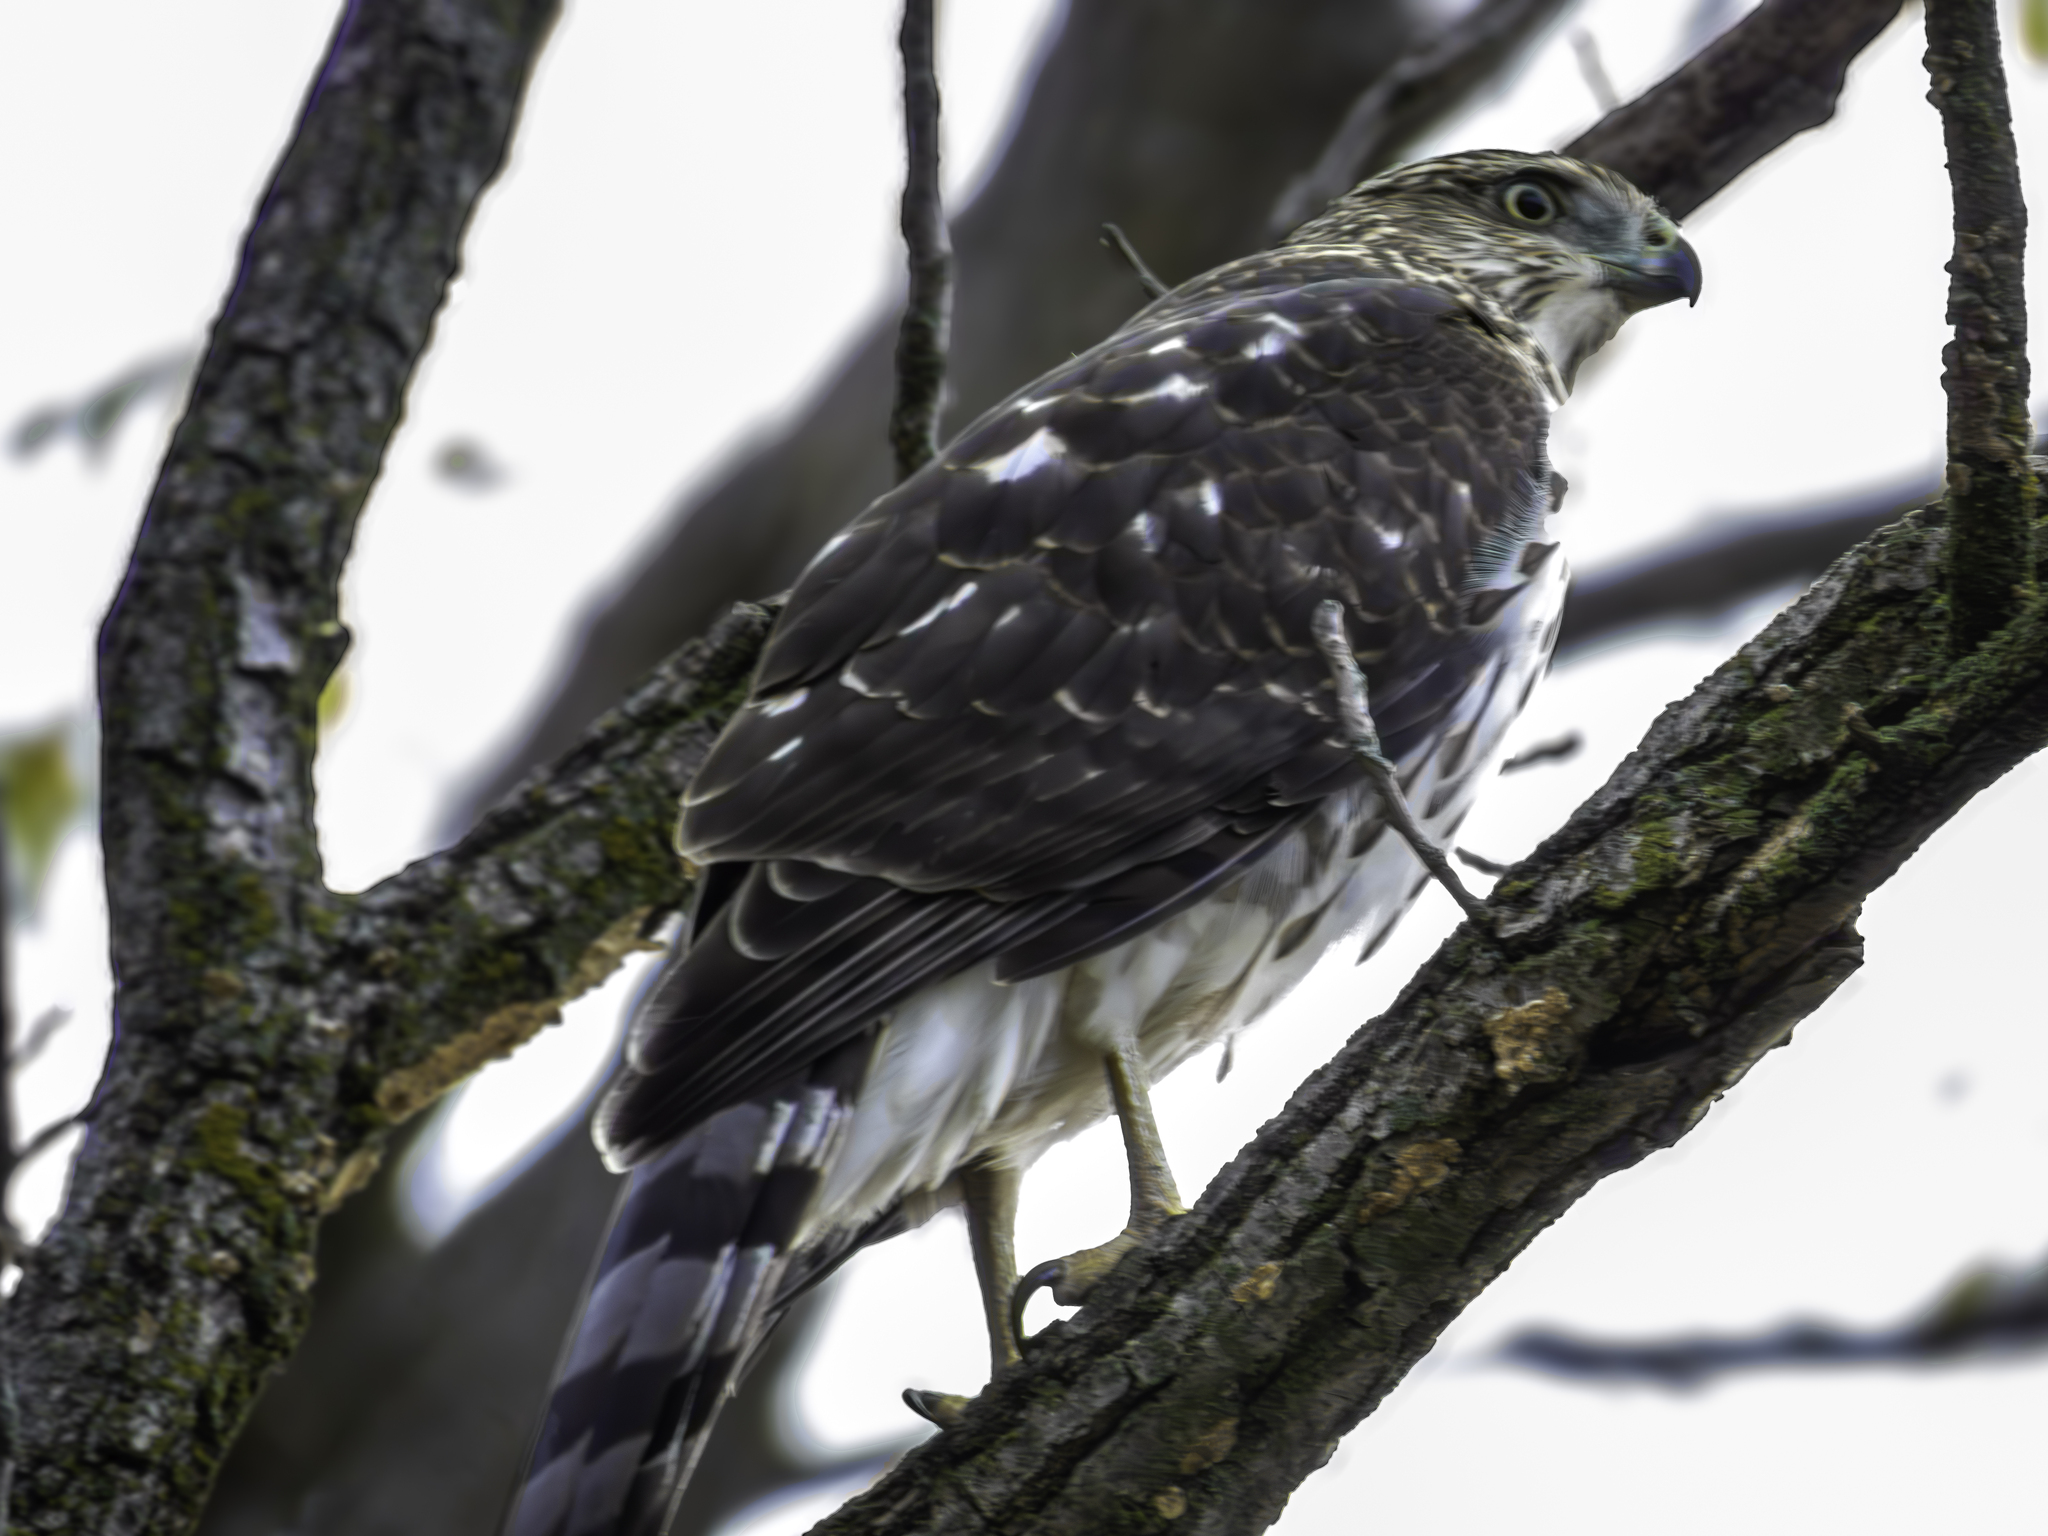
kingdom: Animalia
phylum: Chordata
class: Aves
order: Accipitriformes
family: Accipitridae
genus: Accipiter
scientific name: Accipiter cooperii
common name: Cooper's hawk
